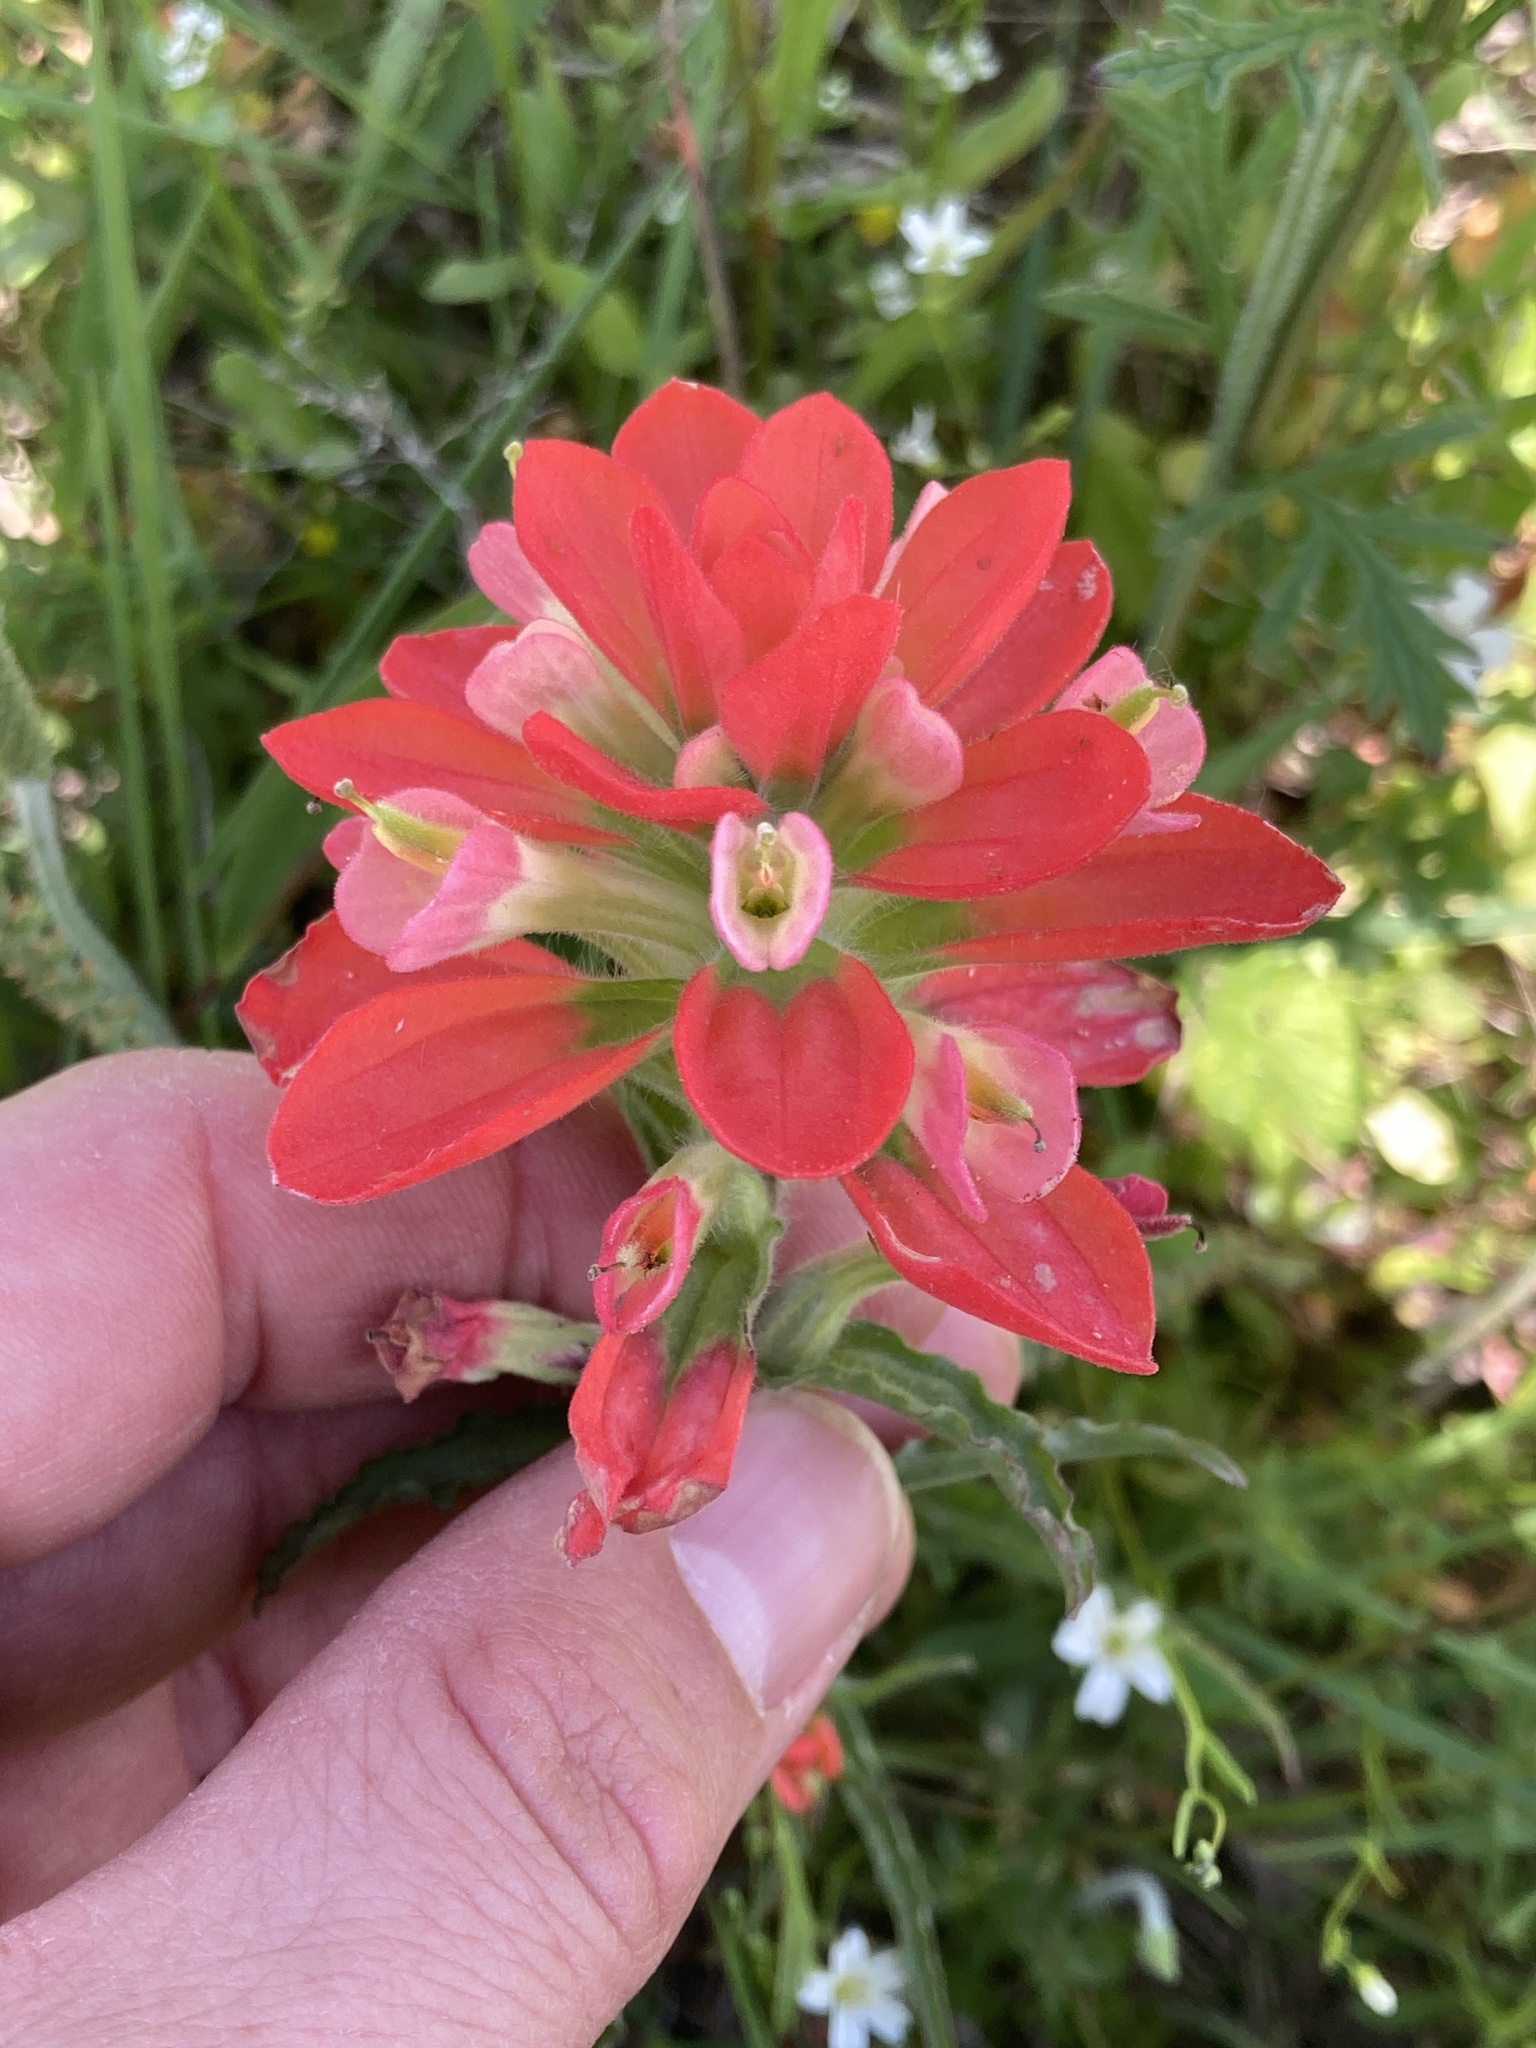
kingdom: Plantae
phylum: Tracheophyta
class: Magnoliopsida
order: Lamiales
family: Orobanchaceae
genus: Castilleja
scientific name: Castilleja indivisa
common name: Texas paintbrush
